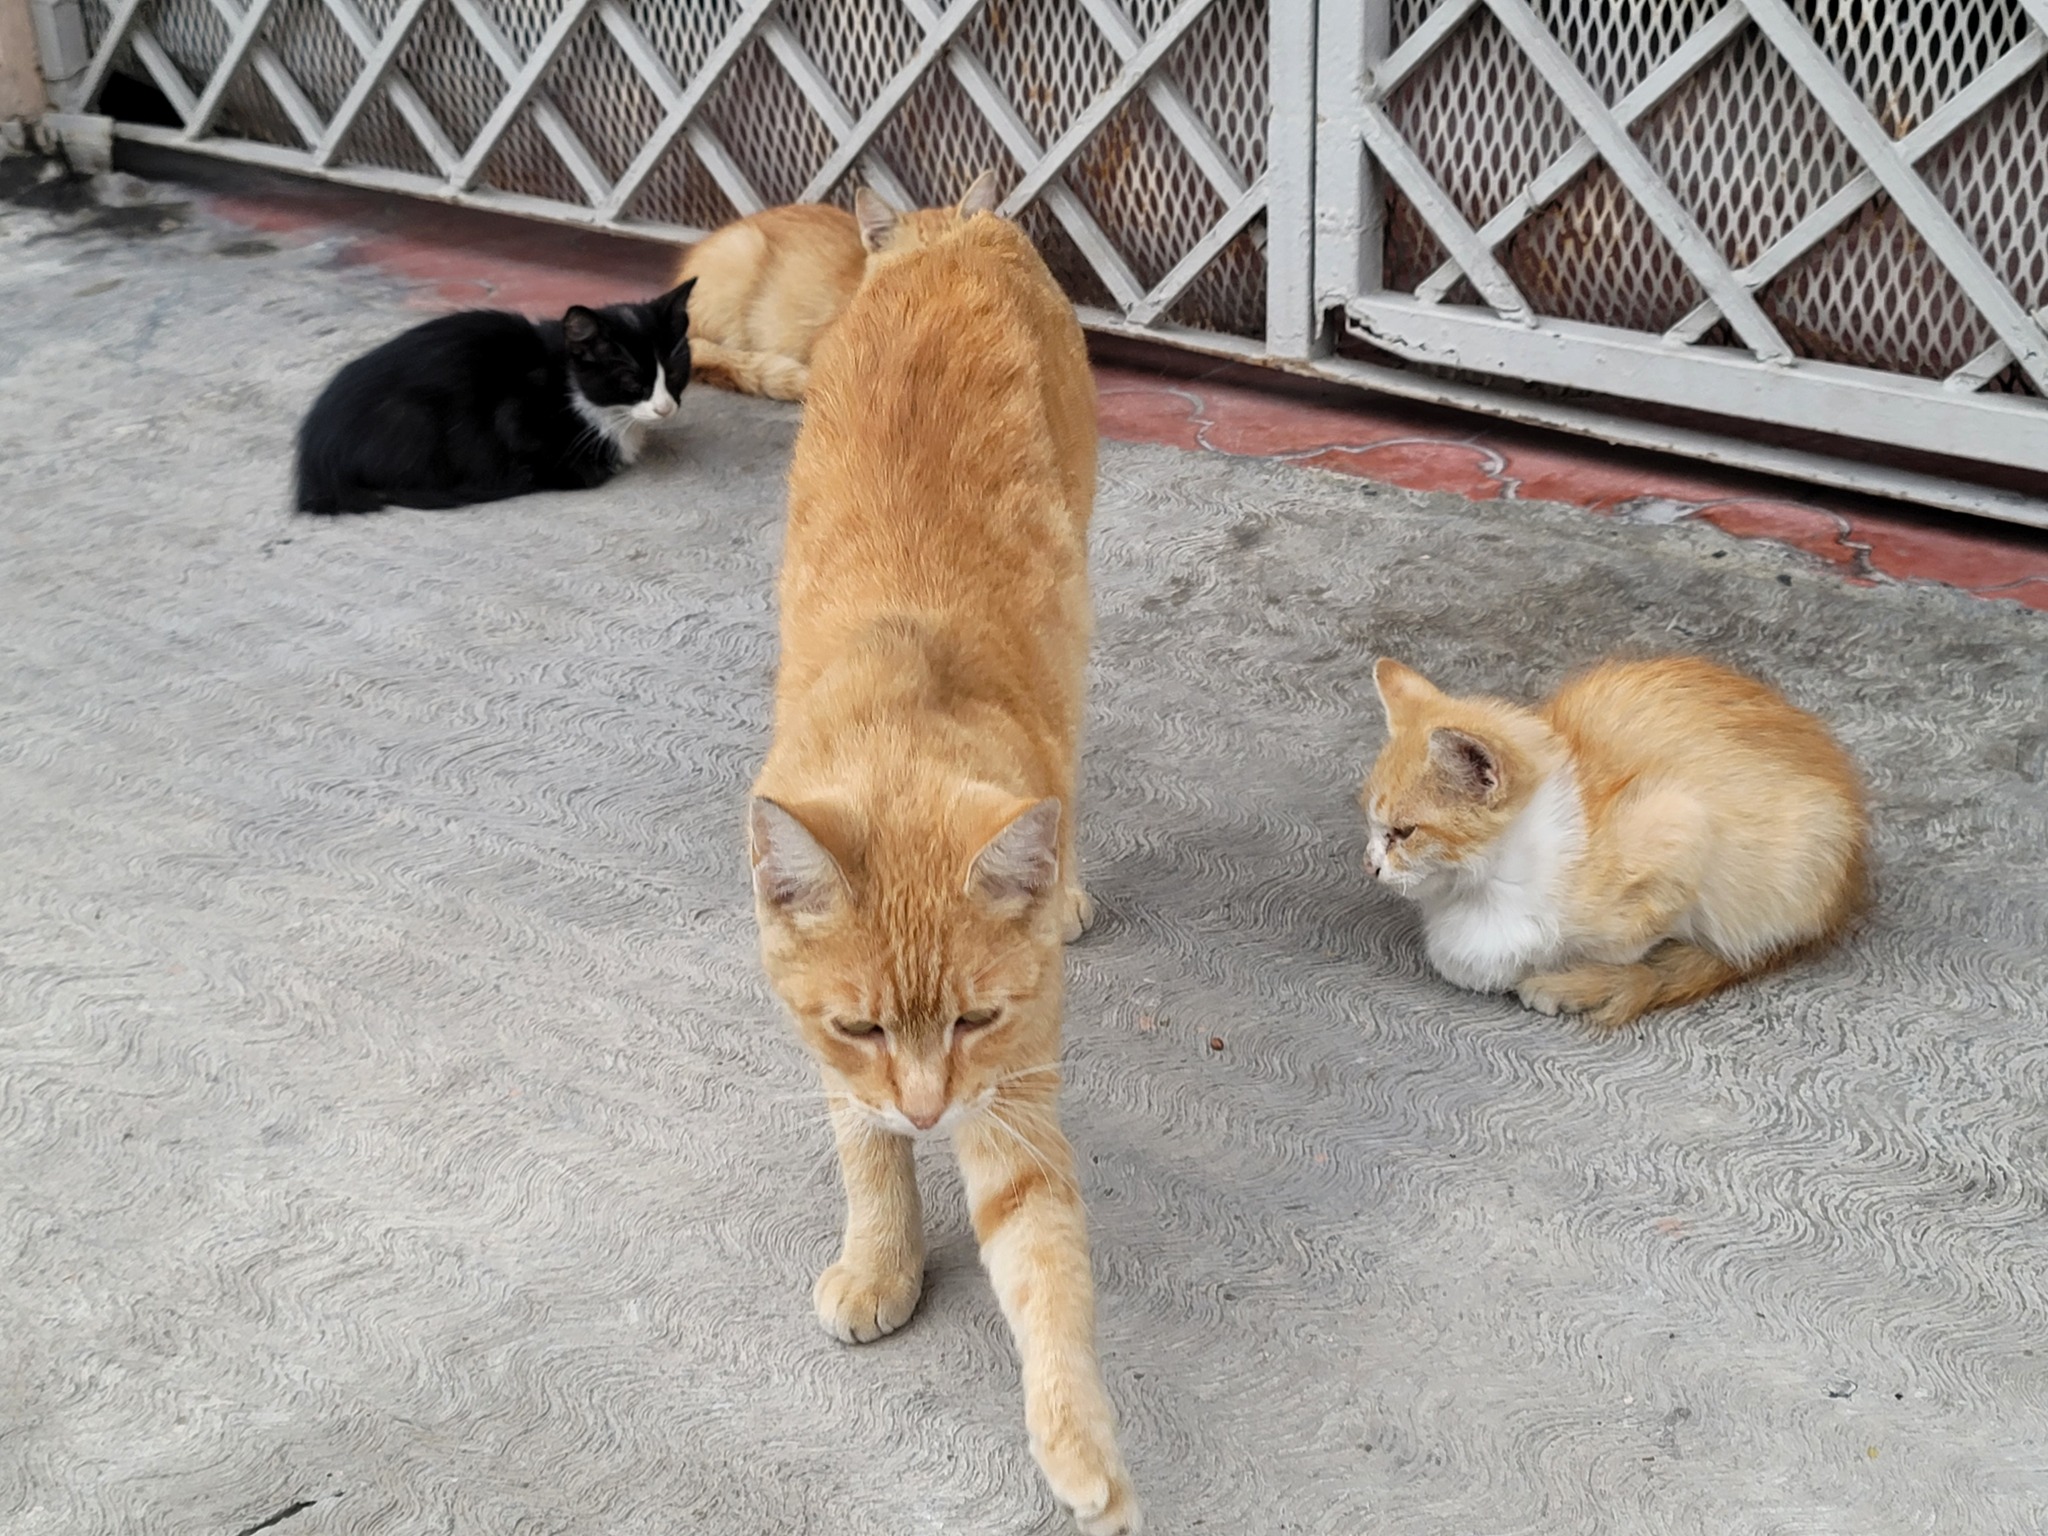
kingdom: Animalia
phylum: Chordata
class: Mammalia
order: Carnivora
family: Felidae
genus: Felis
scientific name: Felis catus
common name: Domestic cat
